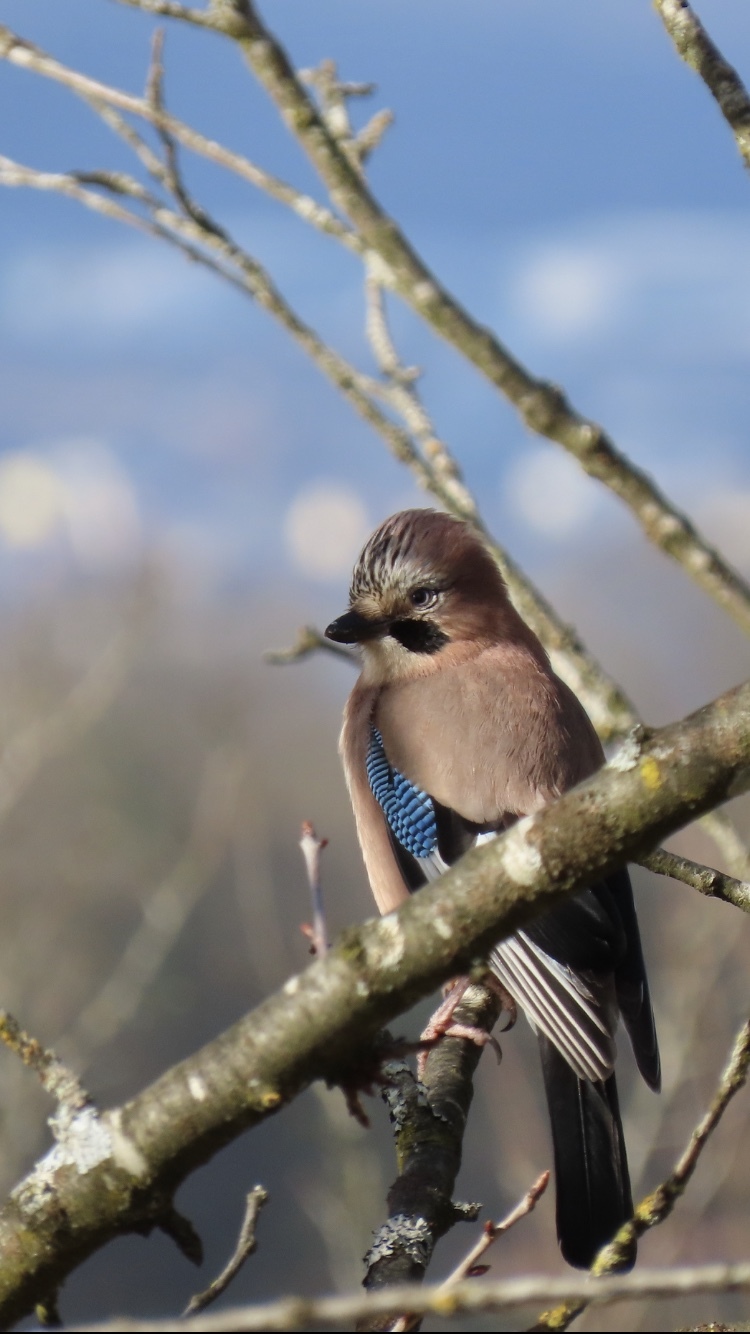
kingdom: Animalia
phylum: Chordata
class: Aves
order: Passeriformes
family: Corvidae
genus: Garrulus
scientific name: Garrulus glandarius
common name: Eurasian jay
